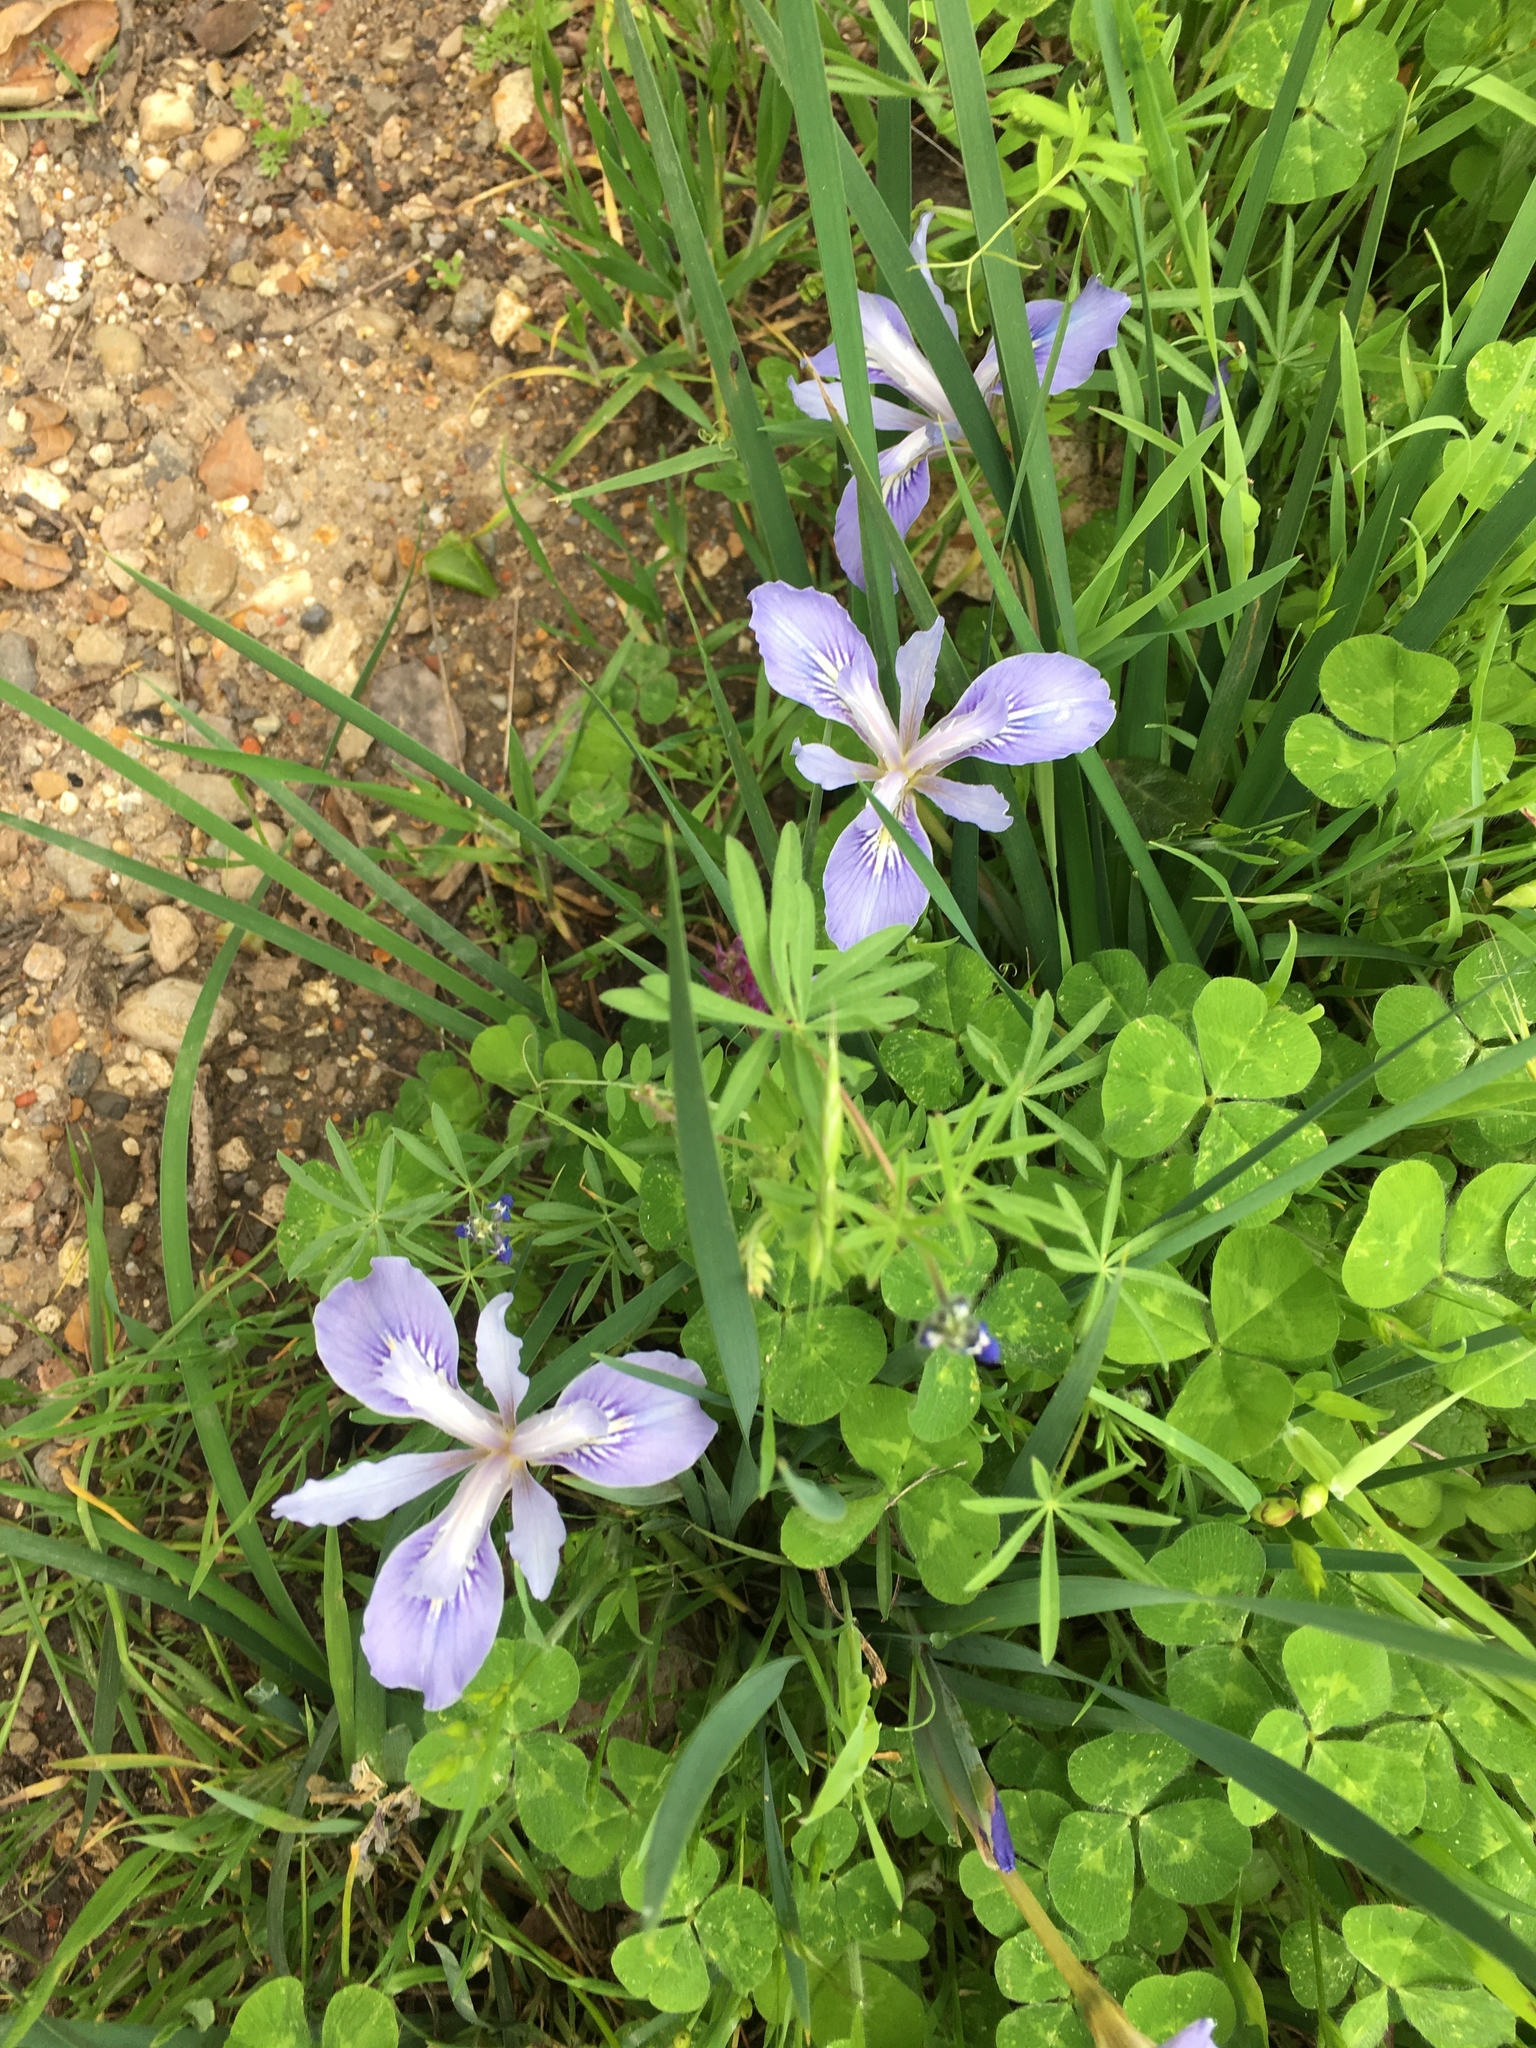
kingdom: Plantae
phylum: Tracheophyta
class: Liliopsida
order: Asparagales
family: Iridaceae
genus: Iris
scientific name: Iris macrosiphon
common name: Ground iris
